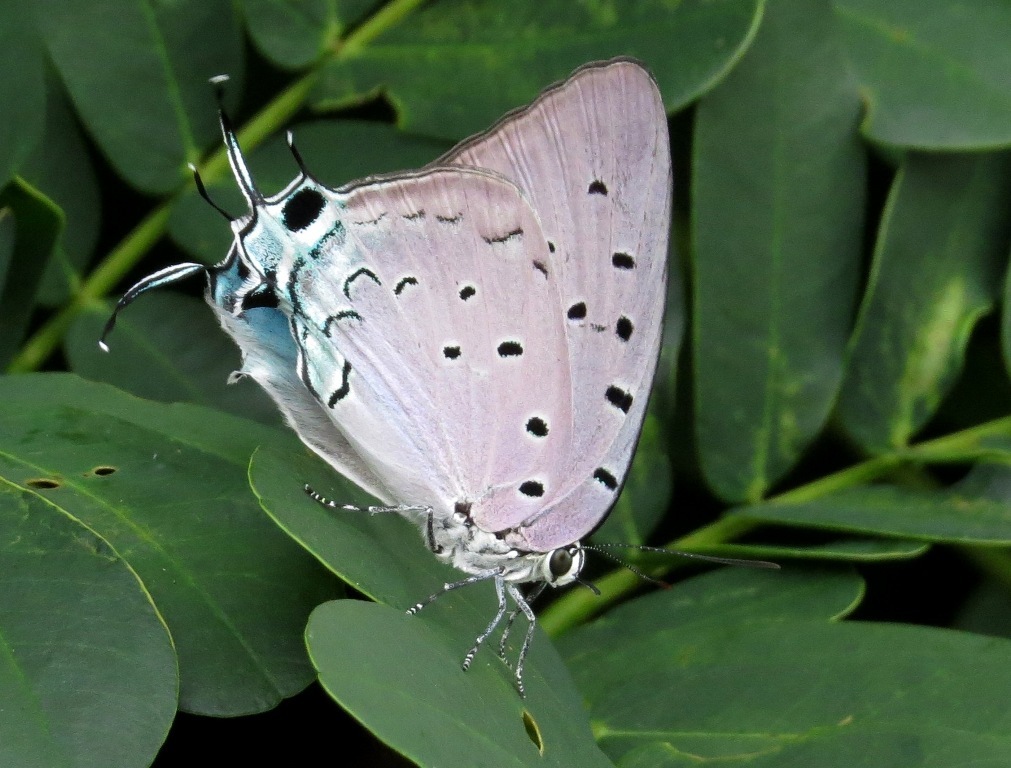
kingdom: Animalia
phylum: Arthropoda
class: Insecta
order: Lepidoptera
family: Lycaenidae
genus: Pseudolycaena
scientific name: Pseudolycaena marsyas
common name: Marsyas hairstreak
